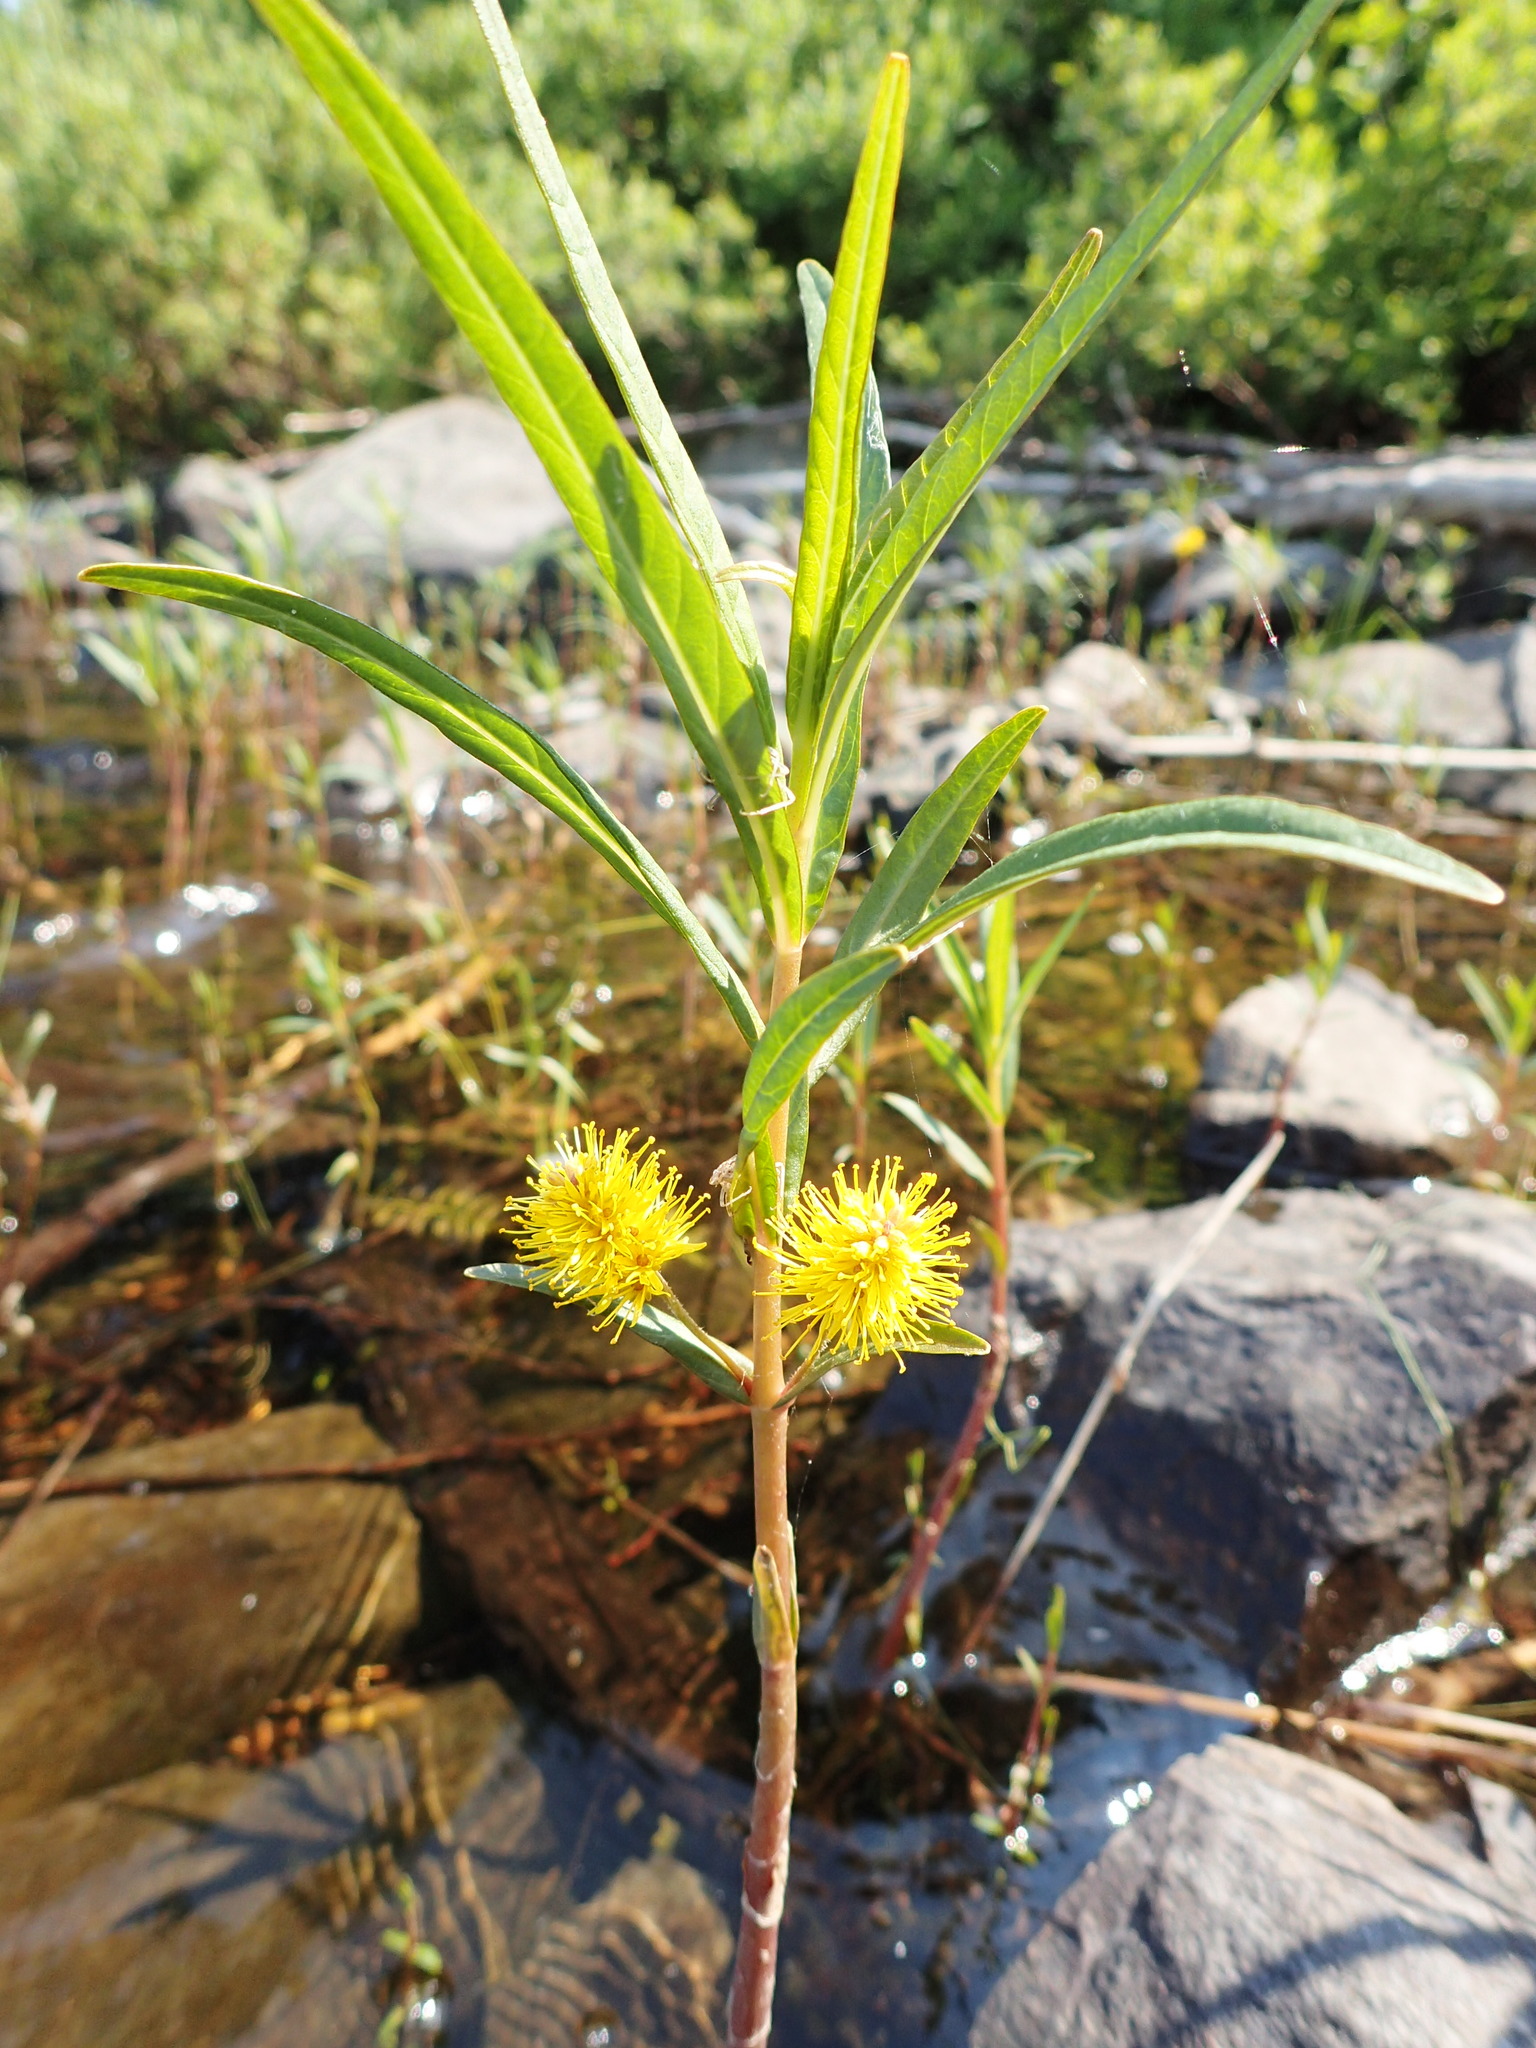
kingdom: Plantae
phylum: Tracheophyta
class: Magnoliopsida
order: Ericales
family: Primulaceae
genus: Lysimachia
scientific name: Lysimachia thyrsiflora
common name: Tufted loosestrife
